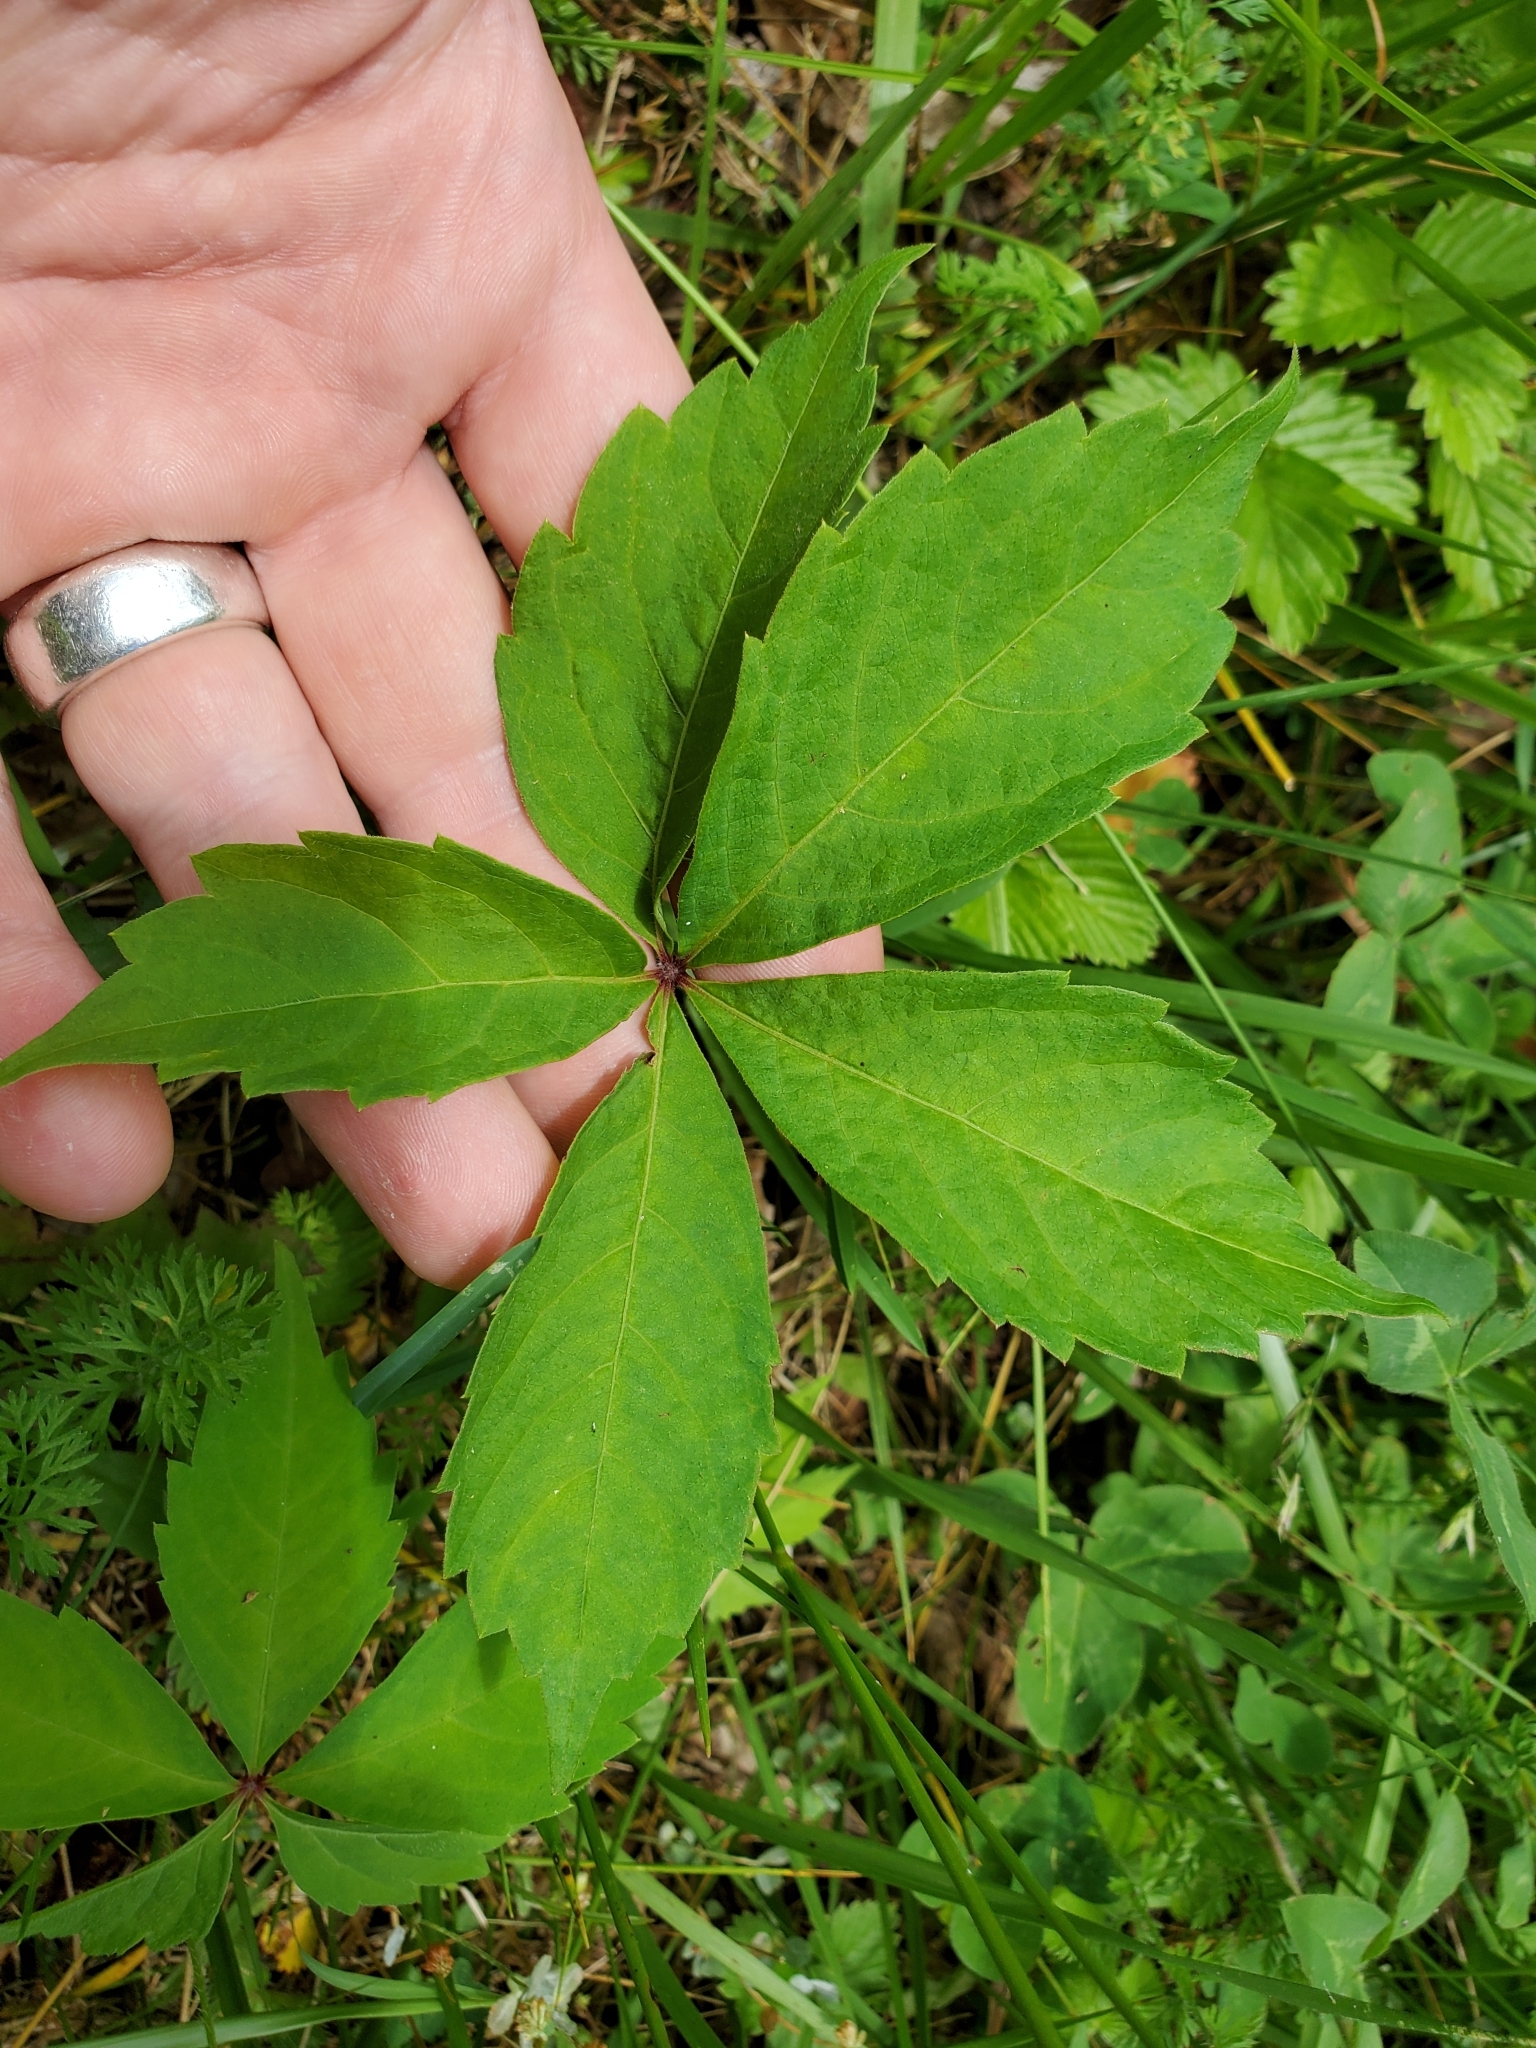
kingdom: Plantae
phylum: Tracheophyta
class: Magnoliopsida
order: Vitales
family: Vitaceae
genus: Parthenocissus
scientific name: Parthenocissus quinquefolia
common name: Virginia-creeper
